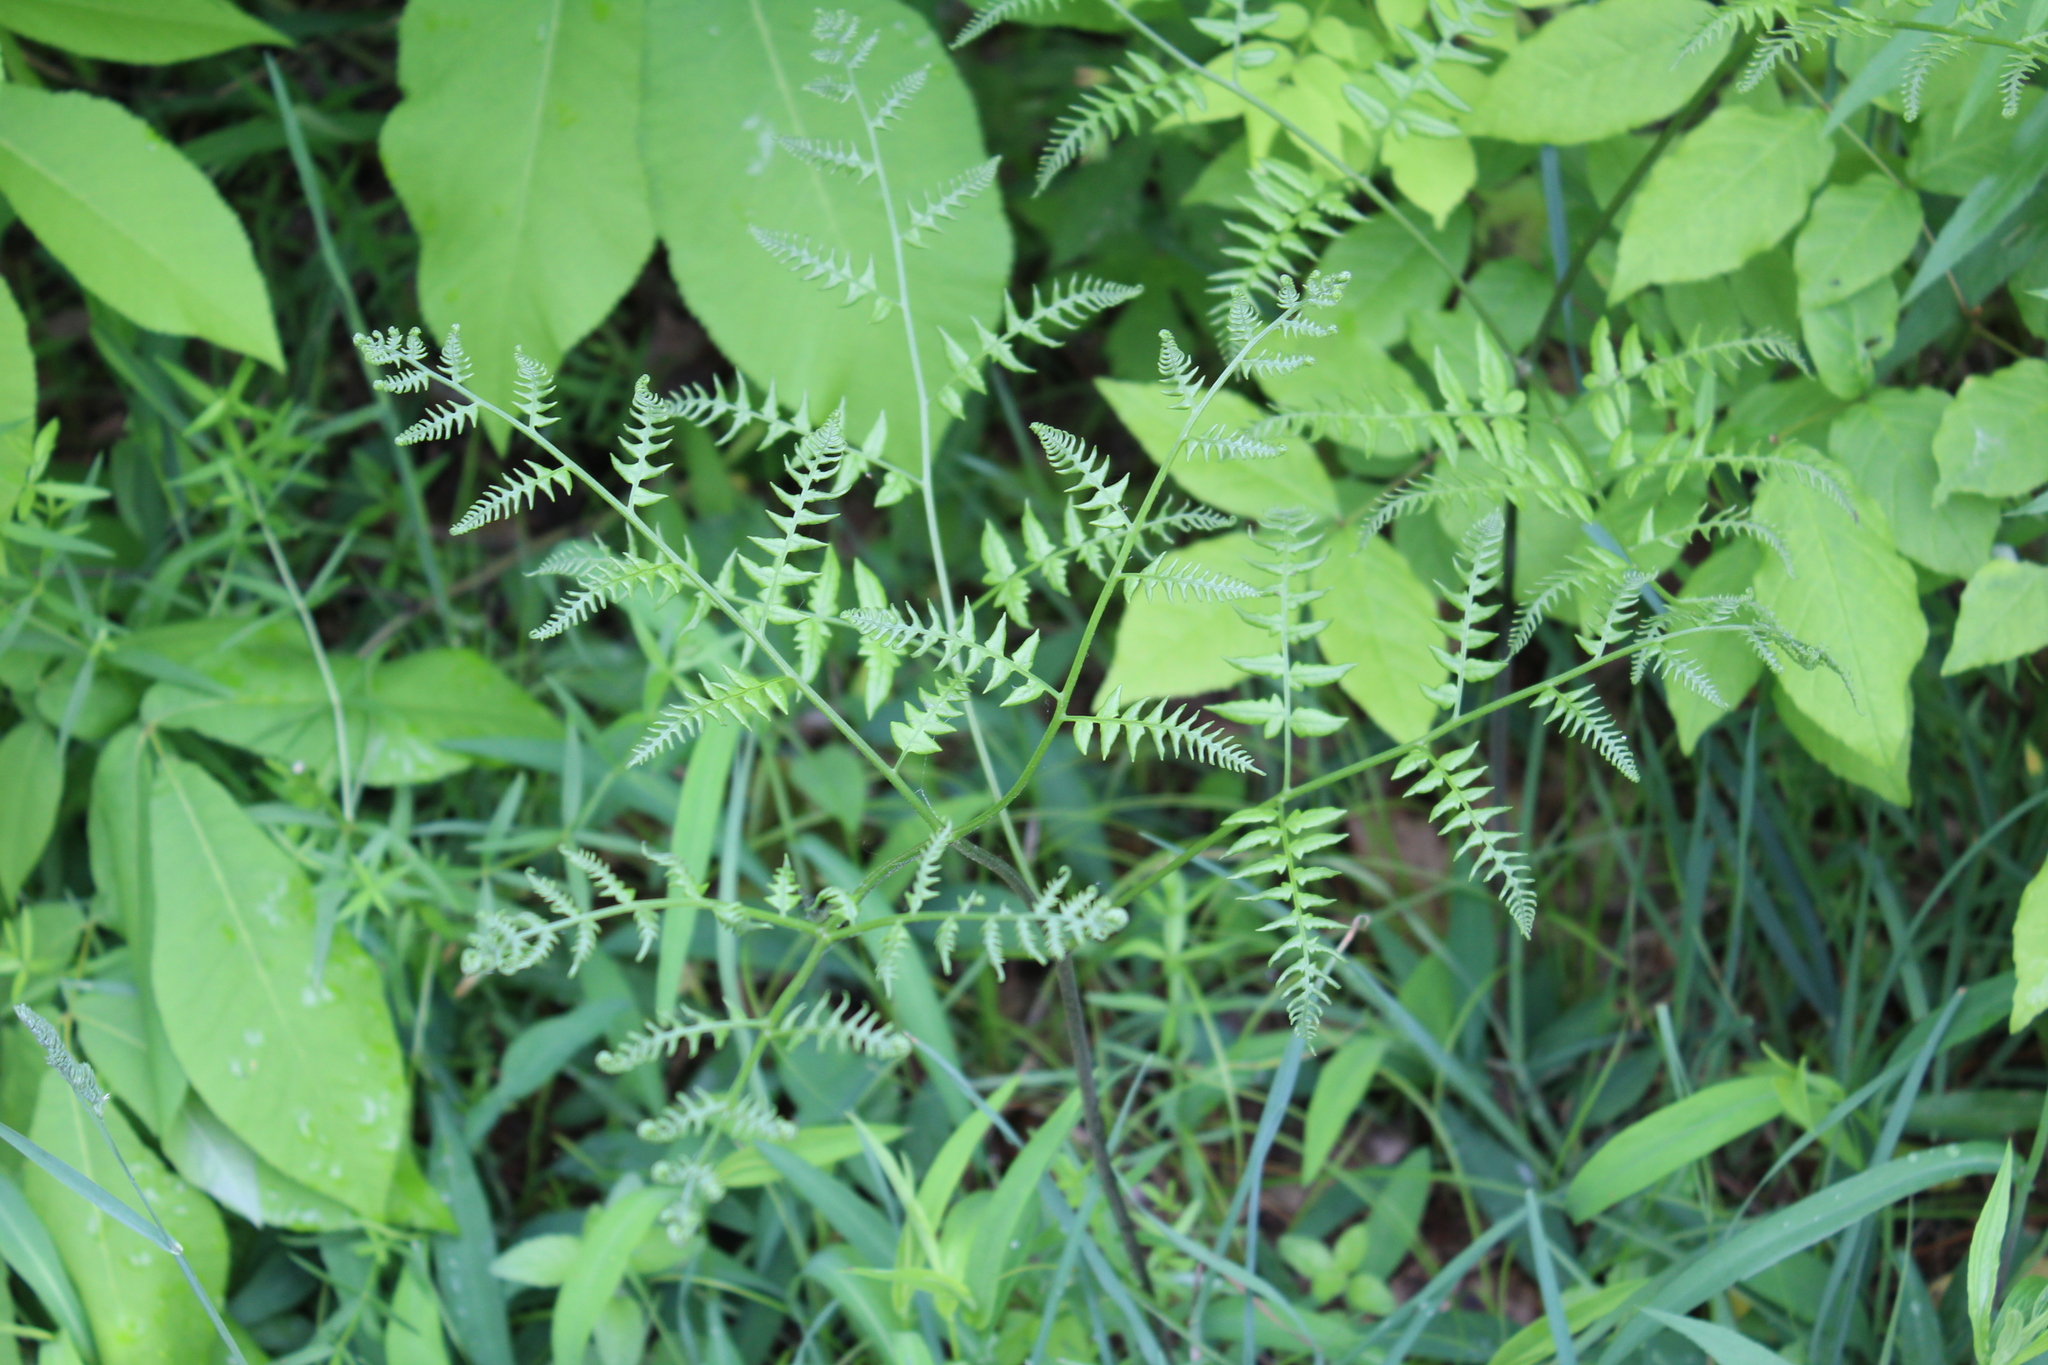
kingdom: Plantae
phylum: Tracheophyta
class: Polypodiopsida
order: Polypodiales
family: Dennstaedtiaceae
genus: Pteridium
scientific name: Pteridium aquilinum
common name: Bracken
